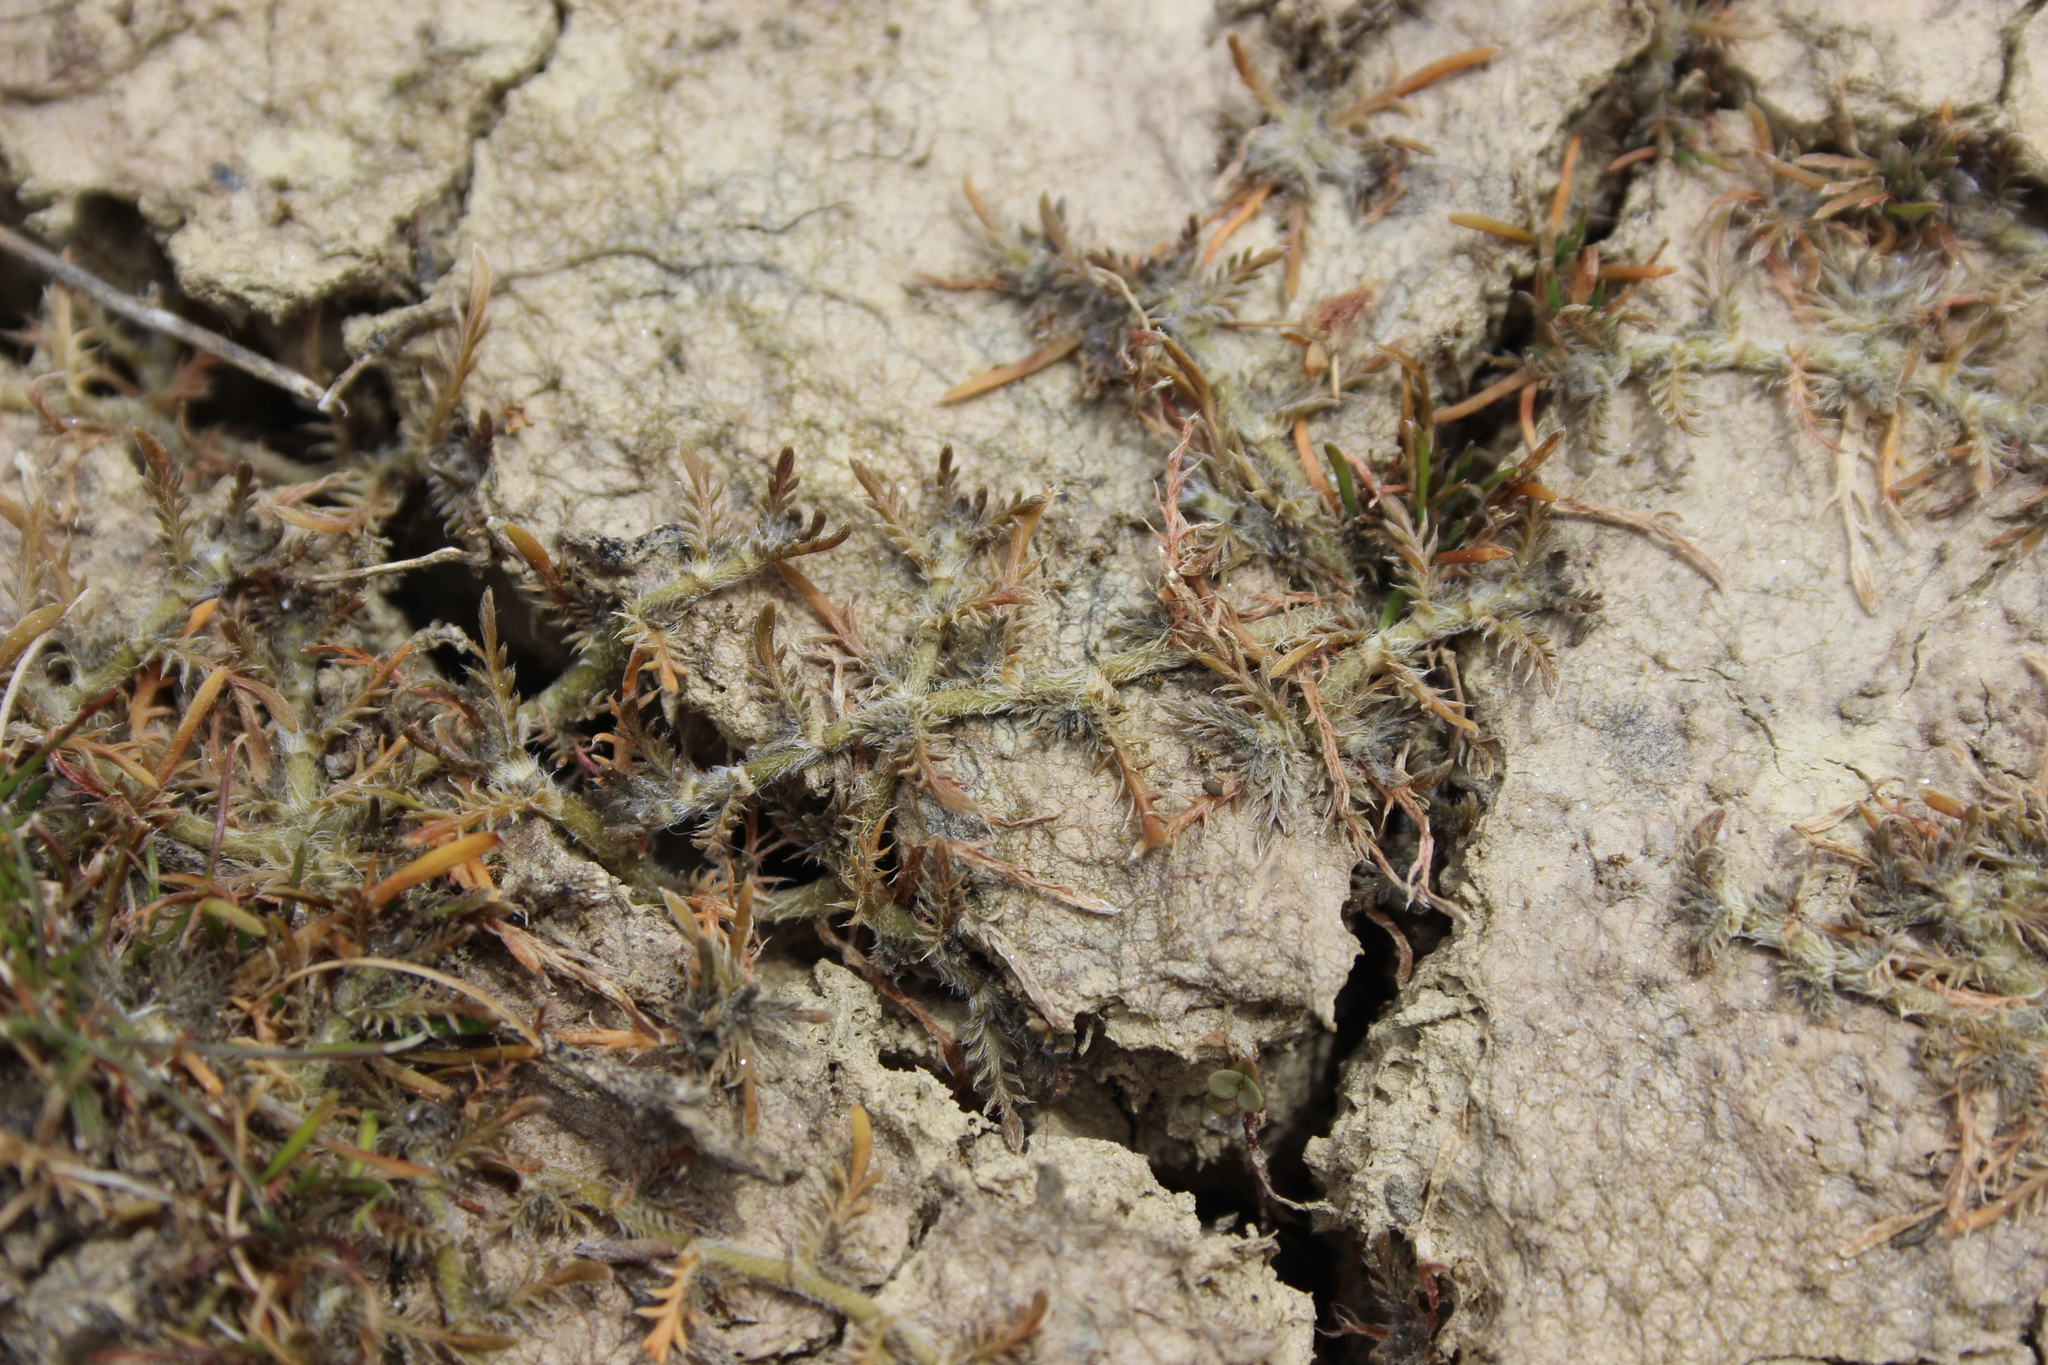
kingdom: Plantae
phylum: Tracheophyta
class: Magnoliopsida
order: Asterales
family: Asteraceae
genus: Leptinella
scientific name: Leptinella maniototo
